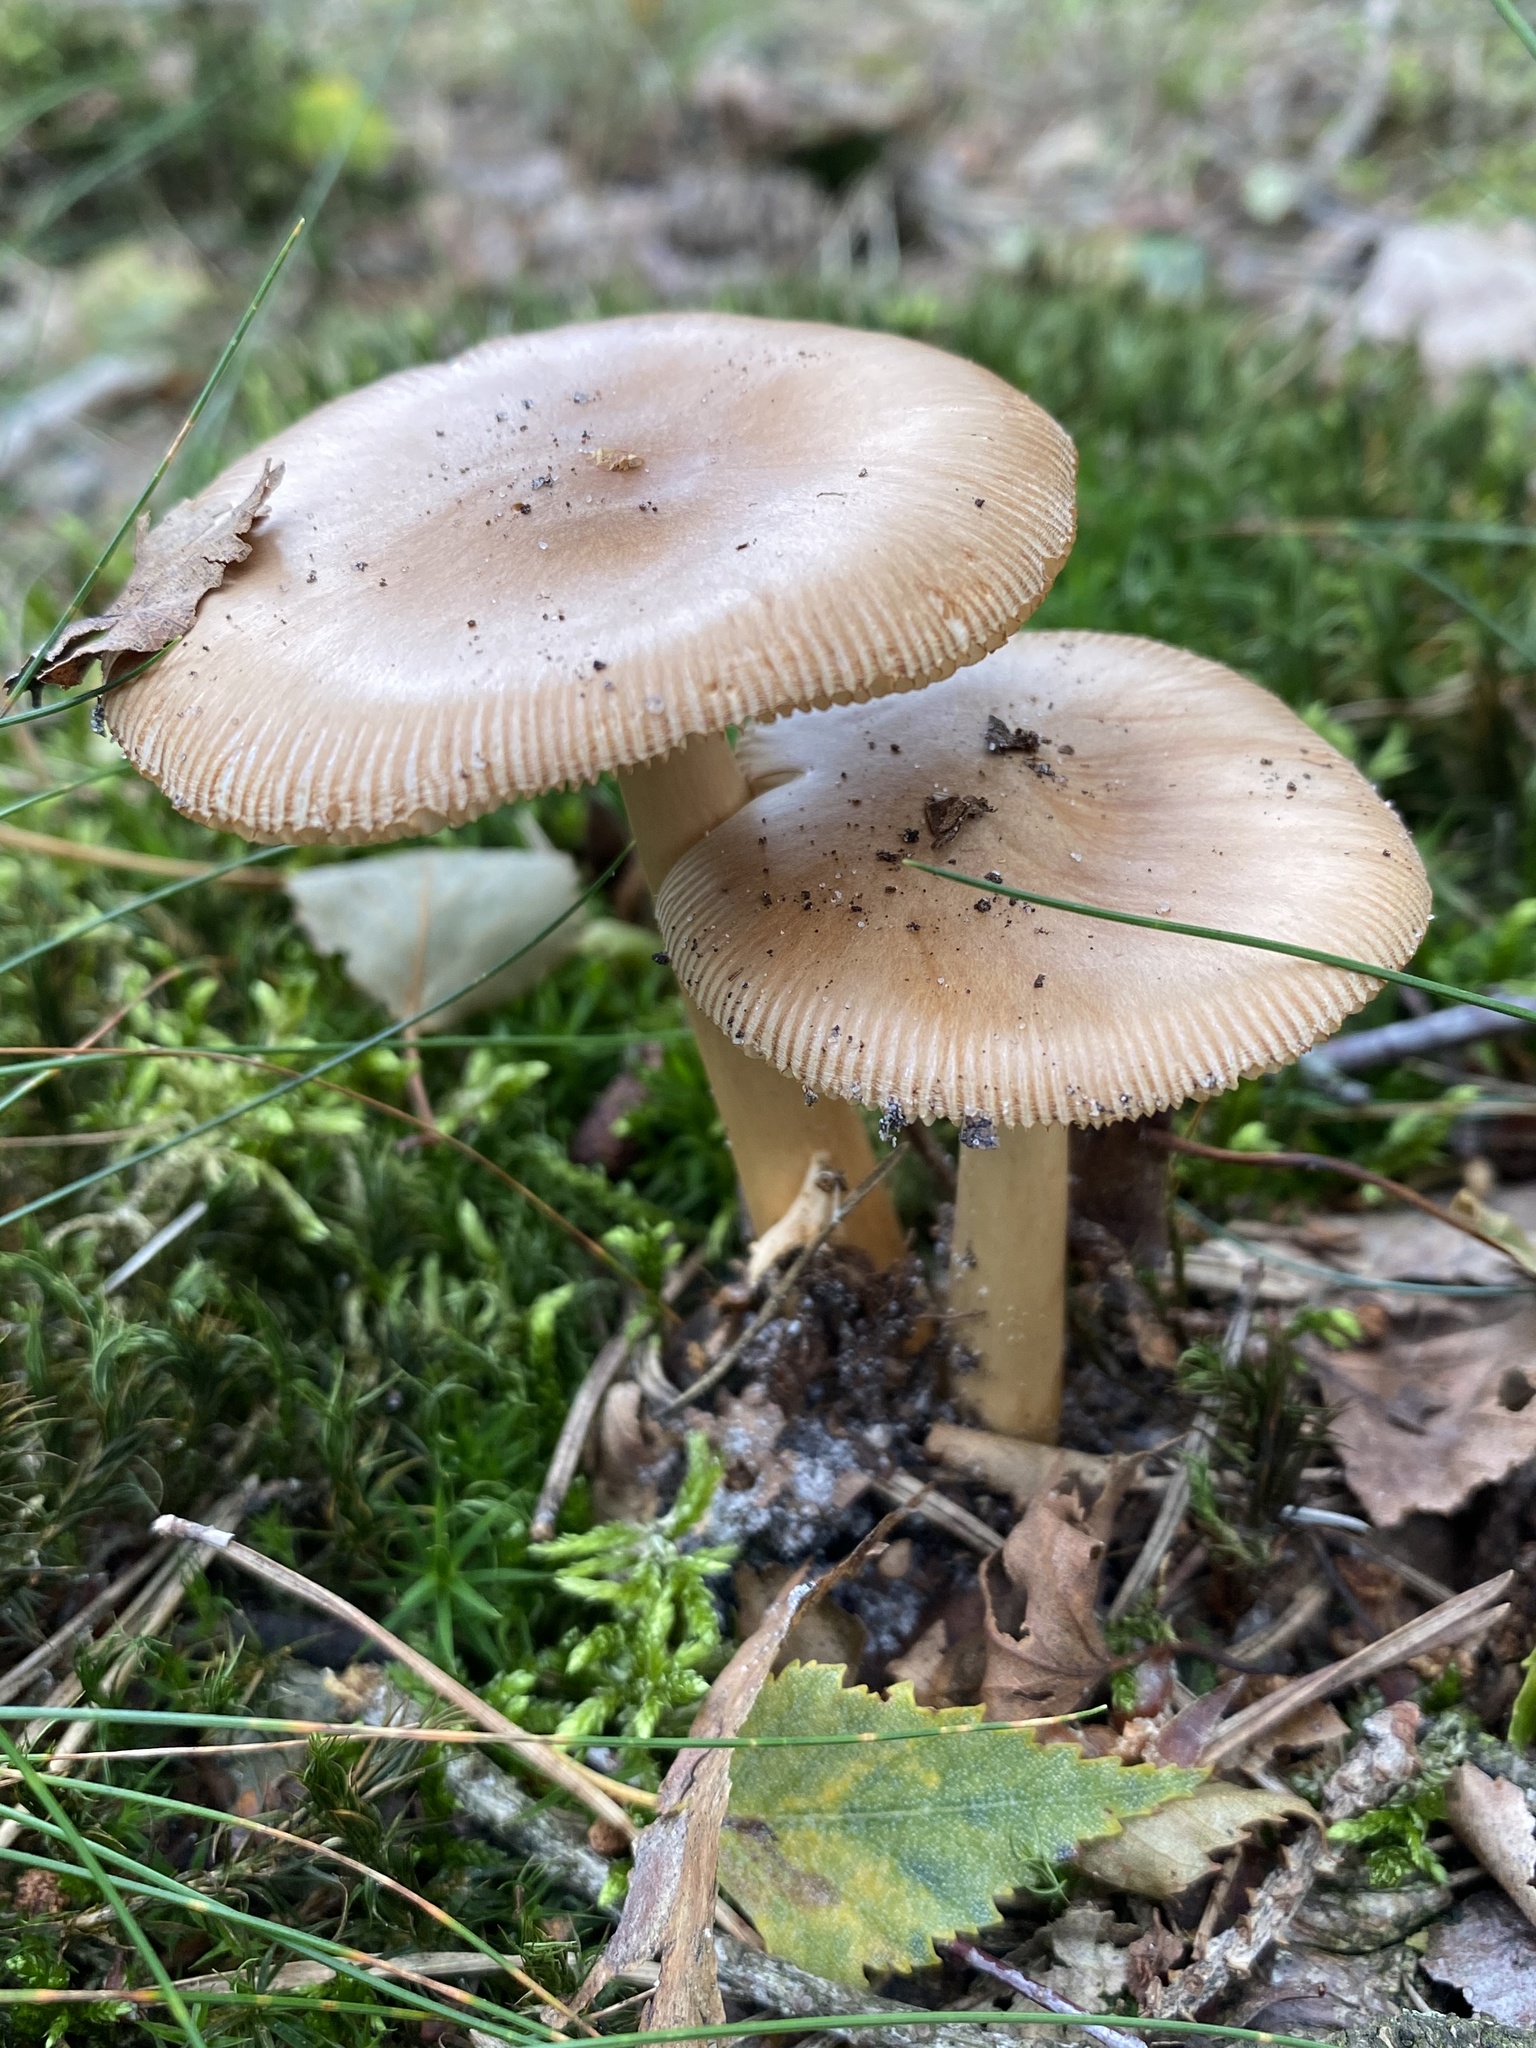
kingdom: Fungi
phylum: Basidiomycota
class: Agaricomycetes
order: Agaricales
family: Amanitaceae
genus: Amanita
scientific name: Amanita fulva
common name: Tawny grisette
